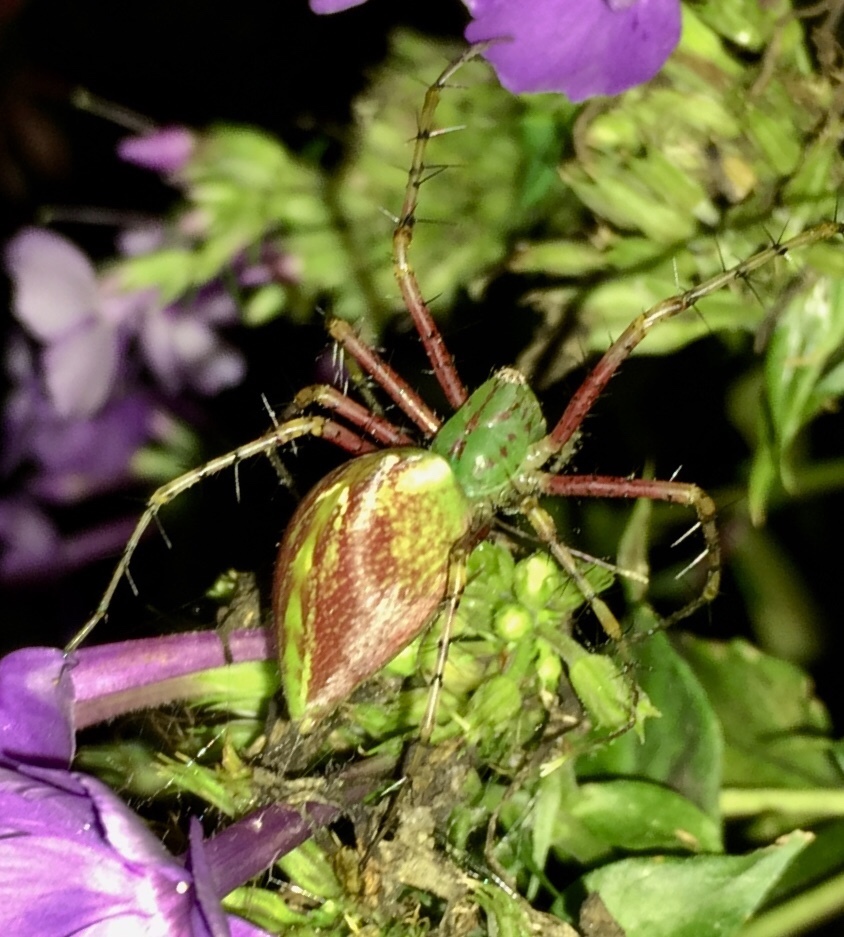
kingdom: Animalia
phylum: Arthropoda
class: Arachnida
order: Araneae
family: Oxyopidae
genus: Peucetia
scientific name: Peucetia viridans
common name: Lynx spiders
